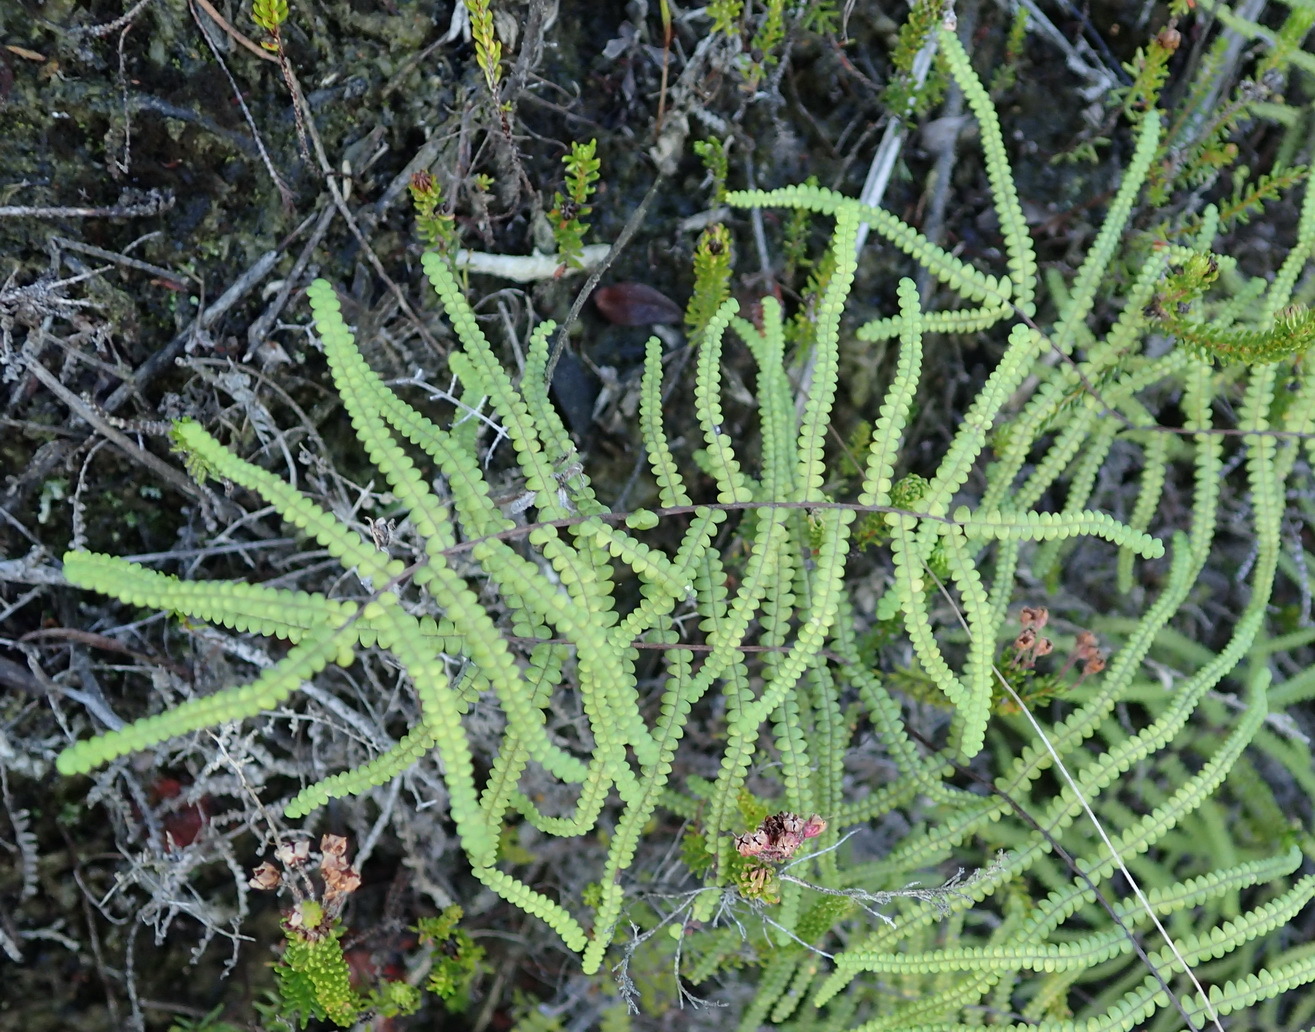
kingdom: Plantae
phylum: Tracheophyta
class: Polypodiopsida
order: Gleicheniales
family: Gleicheniaceae
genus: Gleichenia
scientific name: Gleichenia polypodioides
